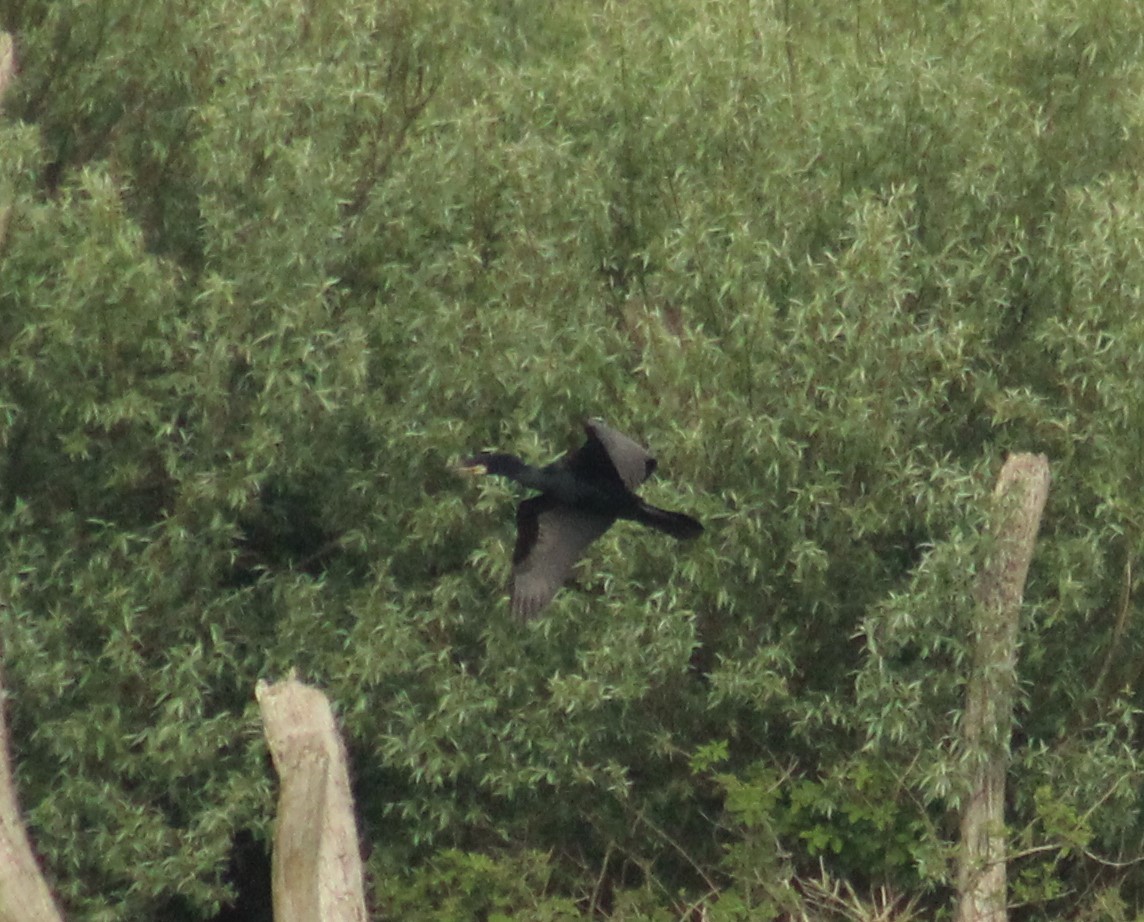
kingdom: Animalia
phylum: Chordata
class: Aves
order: Suliformes
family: Phalacrocoracidae
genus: Phalacrocorax
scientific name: Phalacrocorax carbo
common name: Great cormorant
